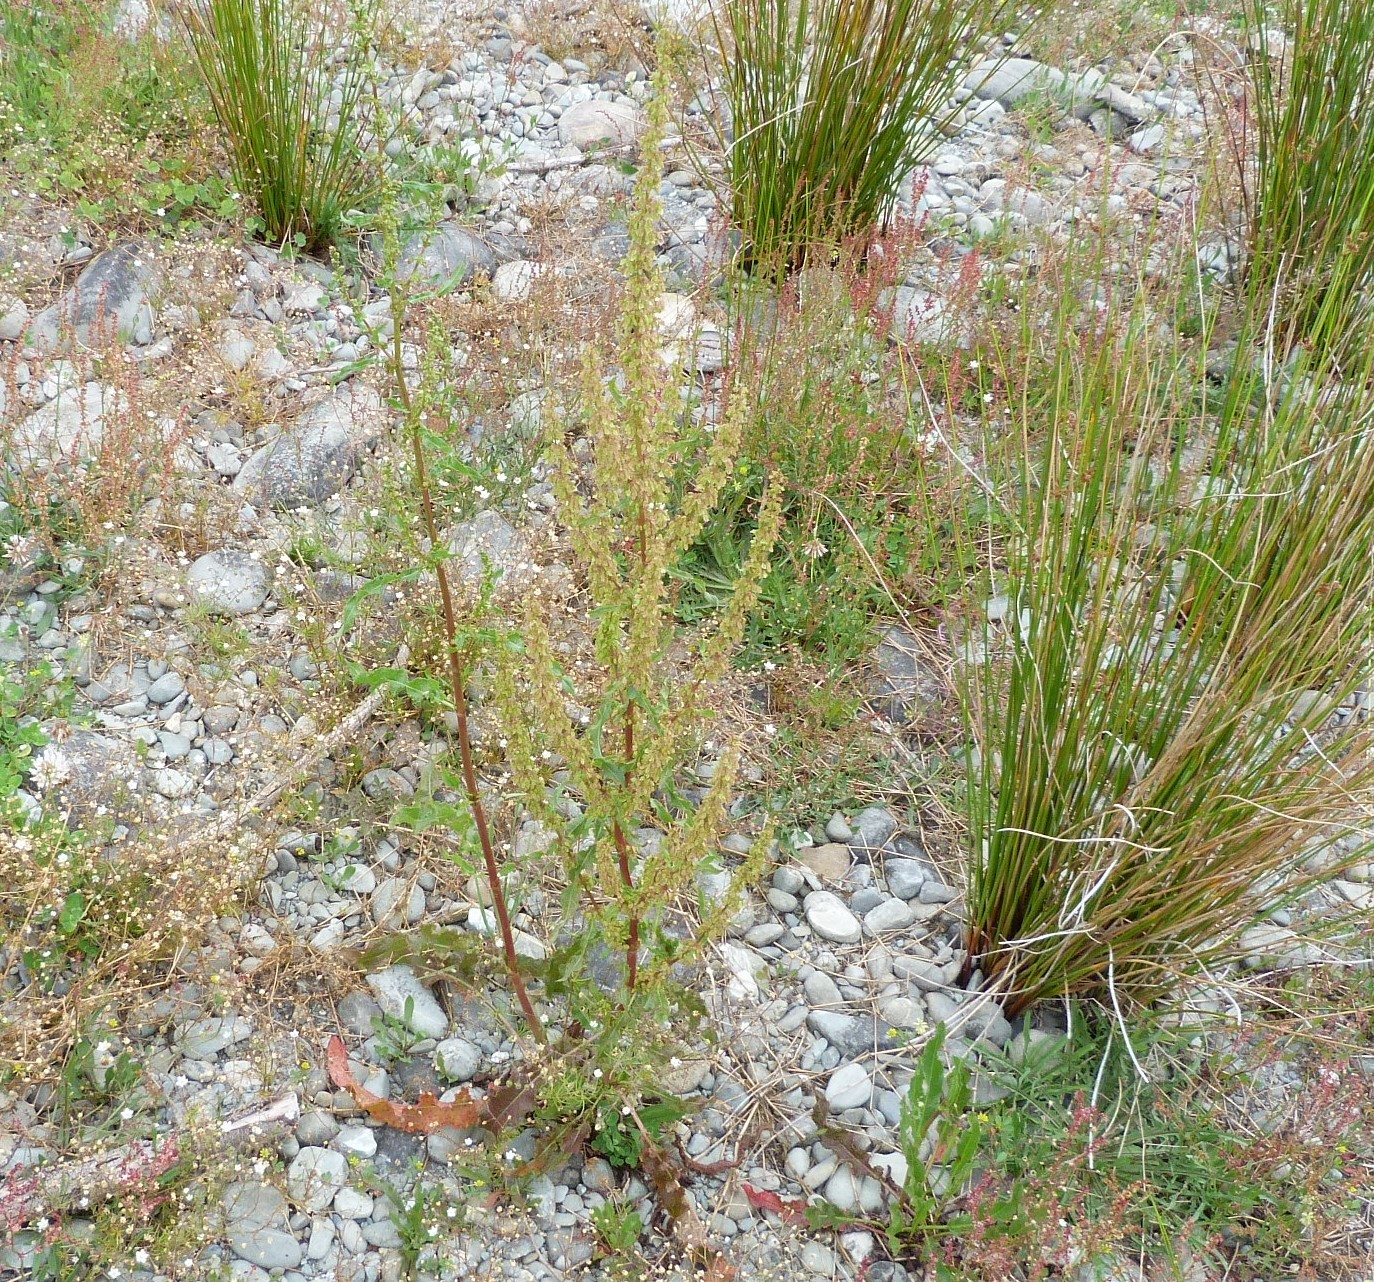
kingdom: Plantae
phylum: Tracheophyta
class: Magnoliopsida
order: Caryophyllales
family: Polygonaceae
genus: Rumex
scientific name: Rumex crispus
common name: Curled dock
